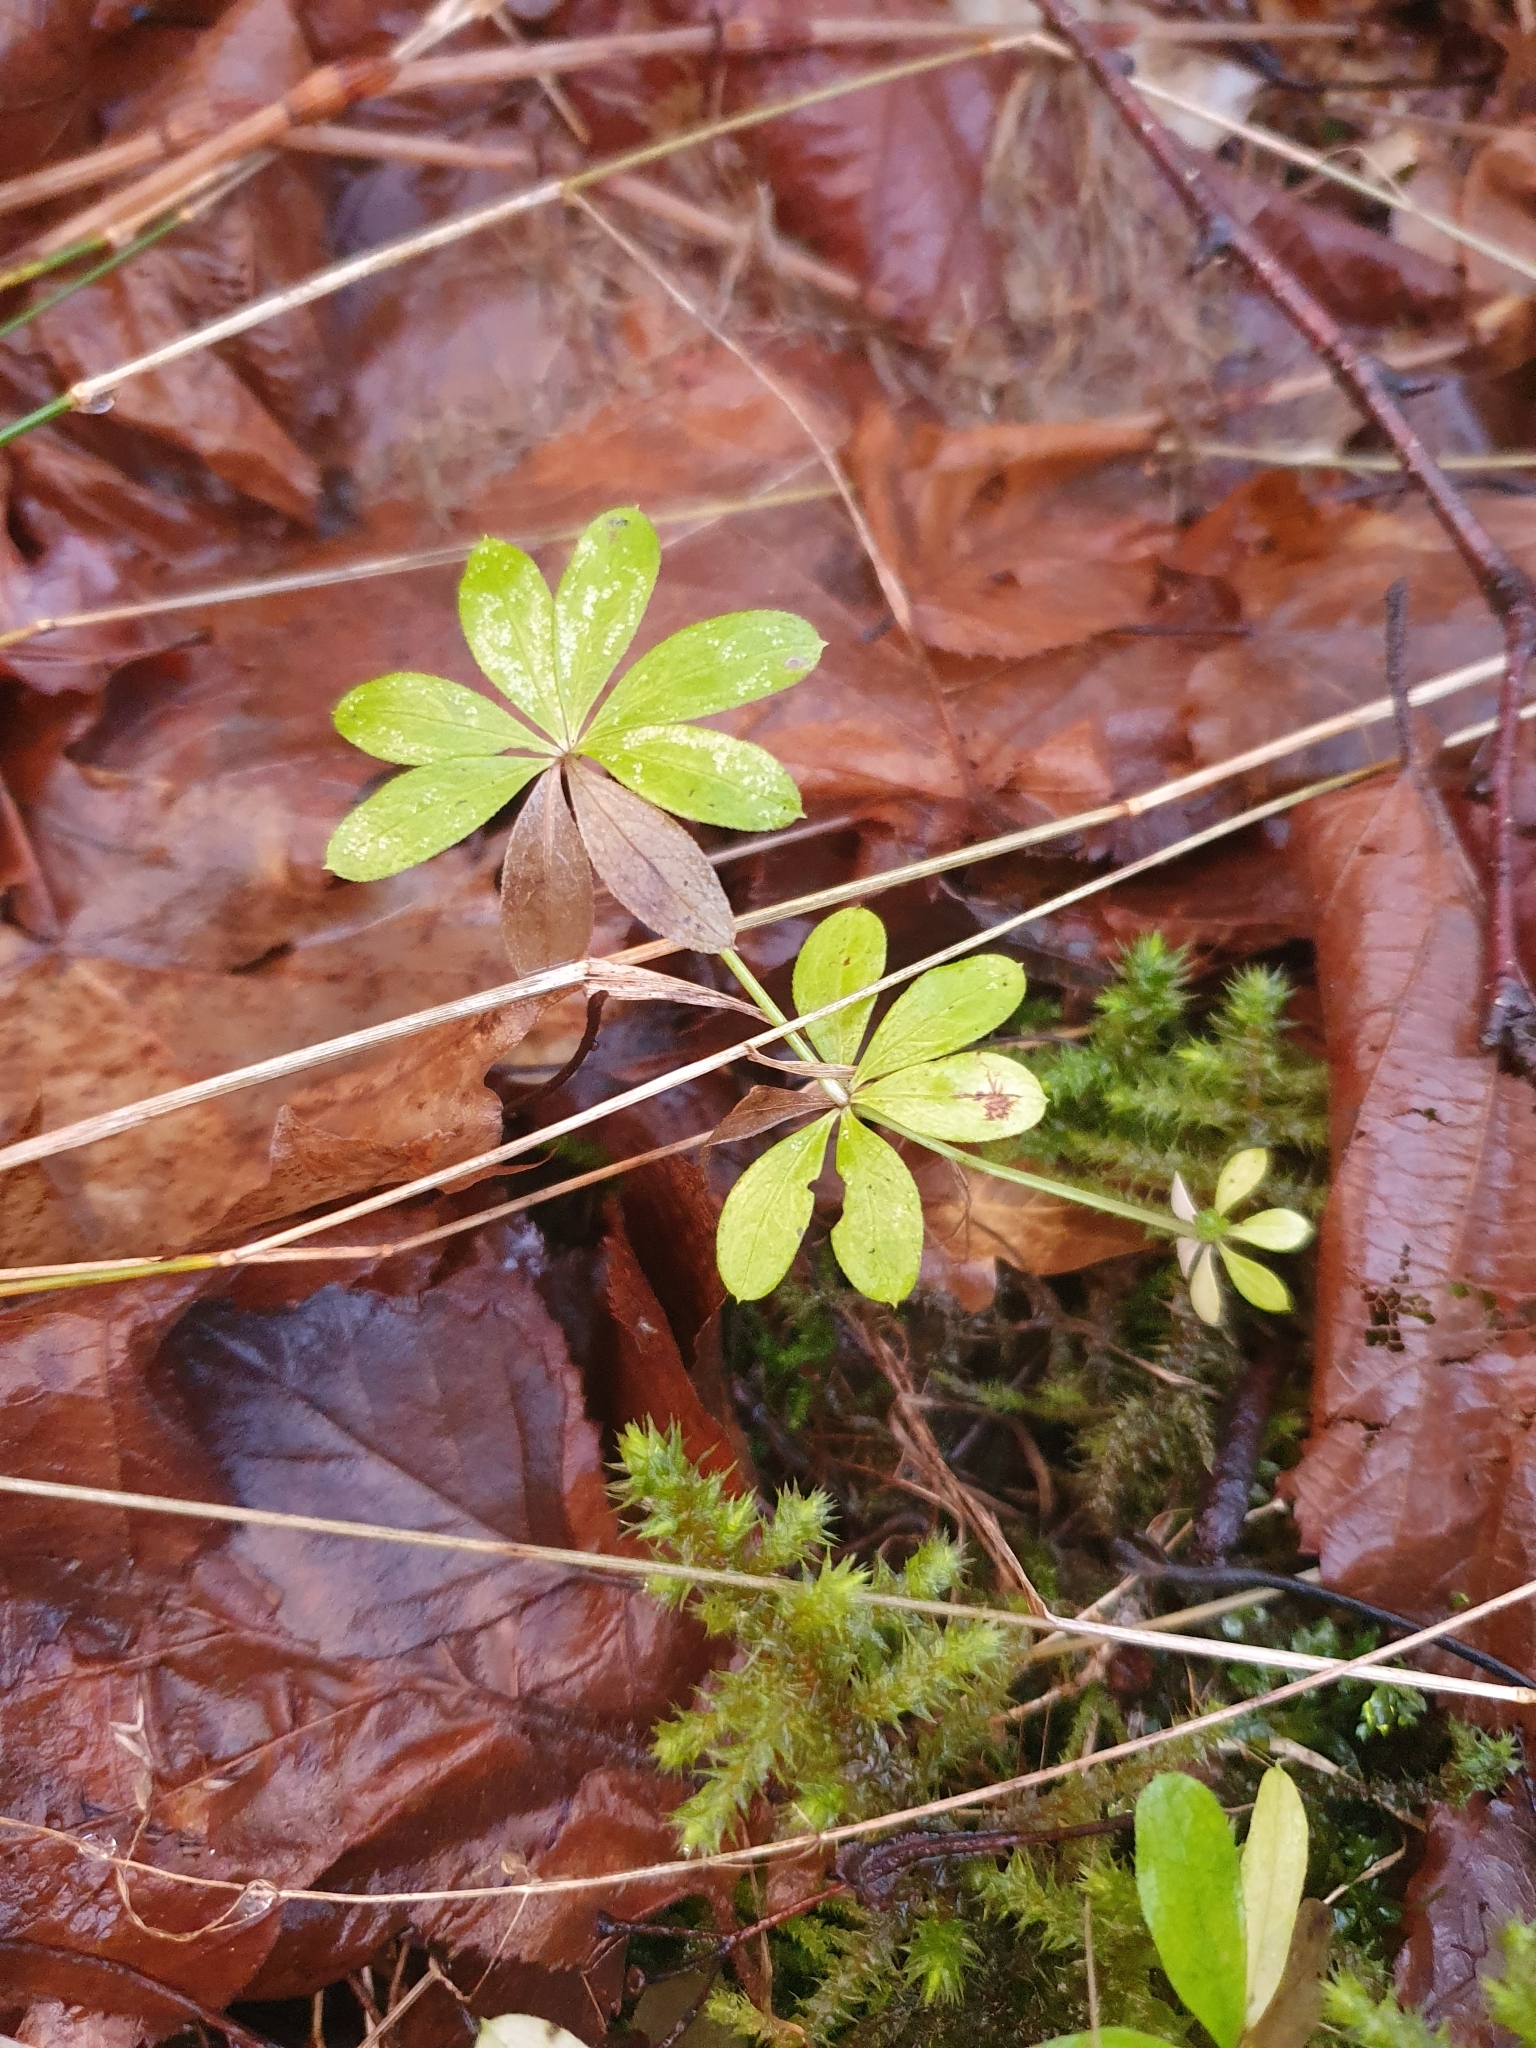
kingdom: Plantae
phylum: Tracheophyta
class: Magnoliopsida
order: Gentianales
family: Rubiaceae
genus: Galium
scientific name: Galium odoratum
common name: Sweet woodruff
